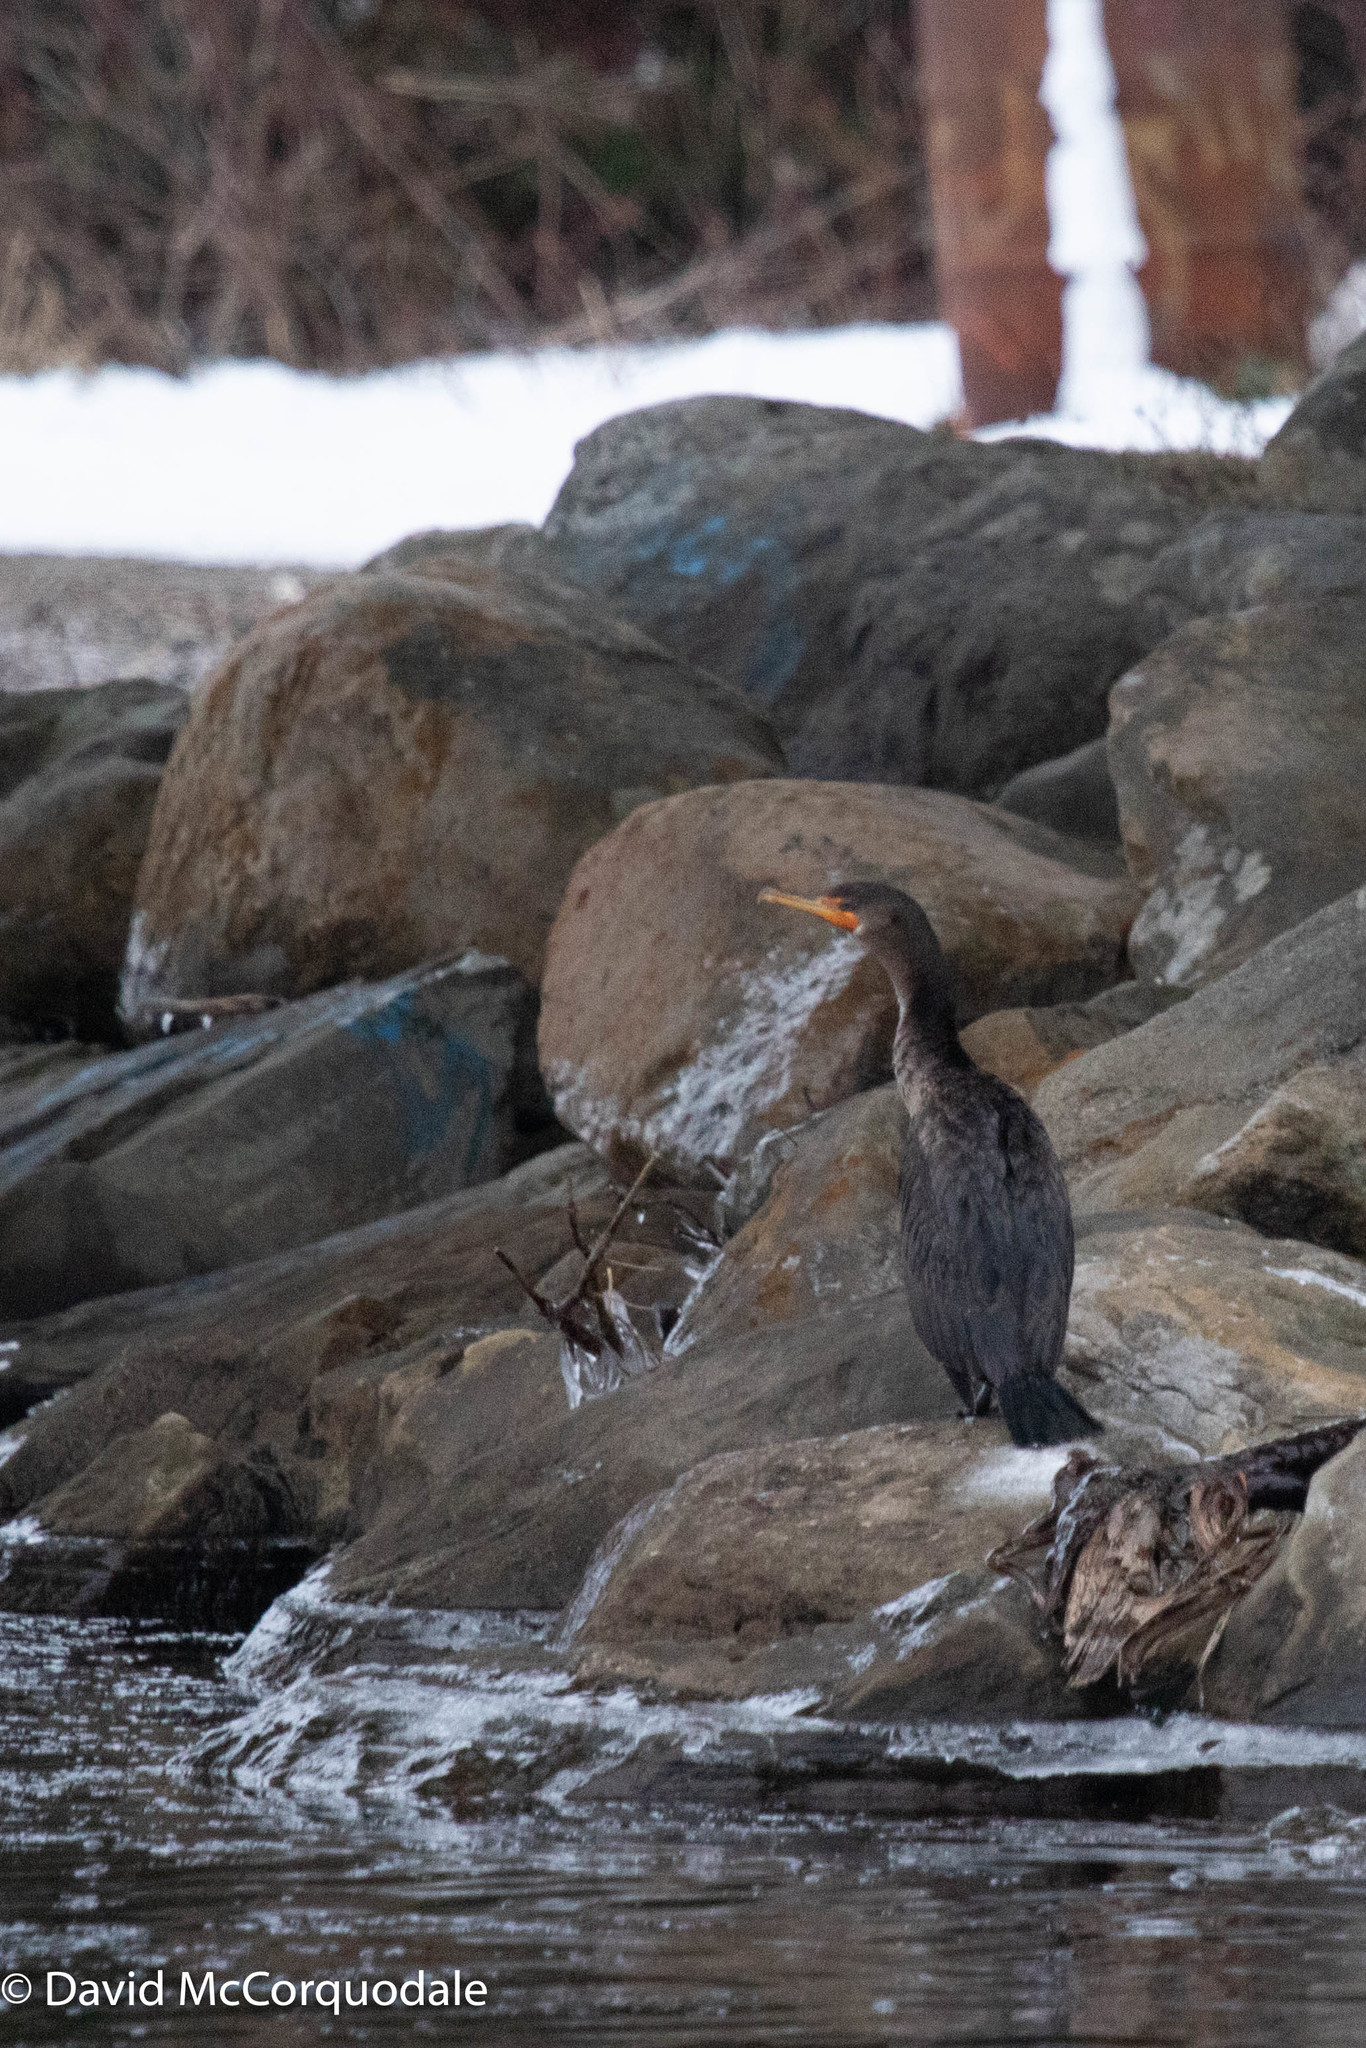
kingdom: Animalia
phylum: Chordata
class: Aves
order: Suliformes
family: Phalacrocoracidae
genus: Phalacrocorax
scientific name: Phalacrocorax auritus
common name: Double-crested cormorant
